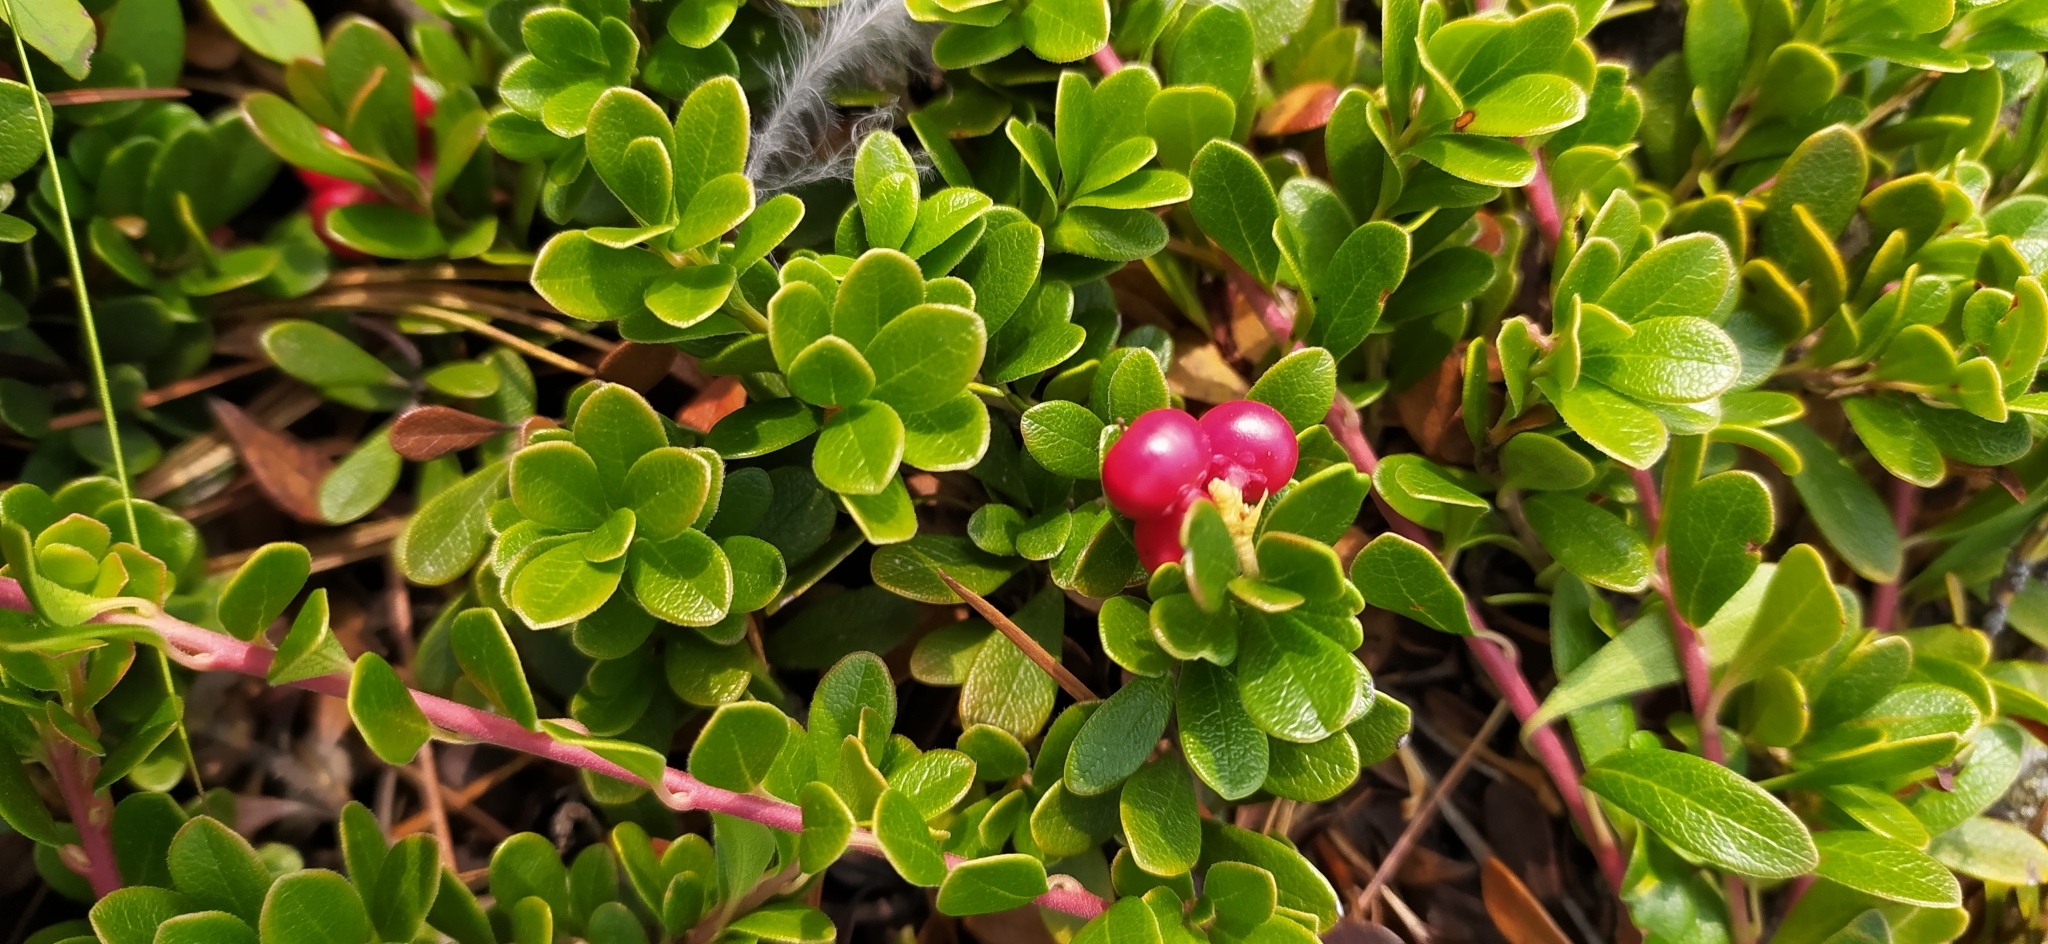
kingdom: Plantae
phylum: Tracheophyta
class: Magnoliopsida
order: Ericales
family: Ericaceae
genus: Arctostaphylos
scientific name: Arctostaphylos uva-ursi
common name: Bearberry
